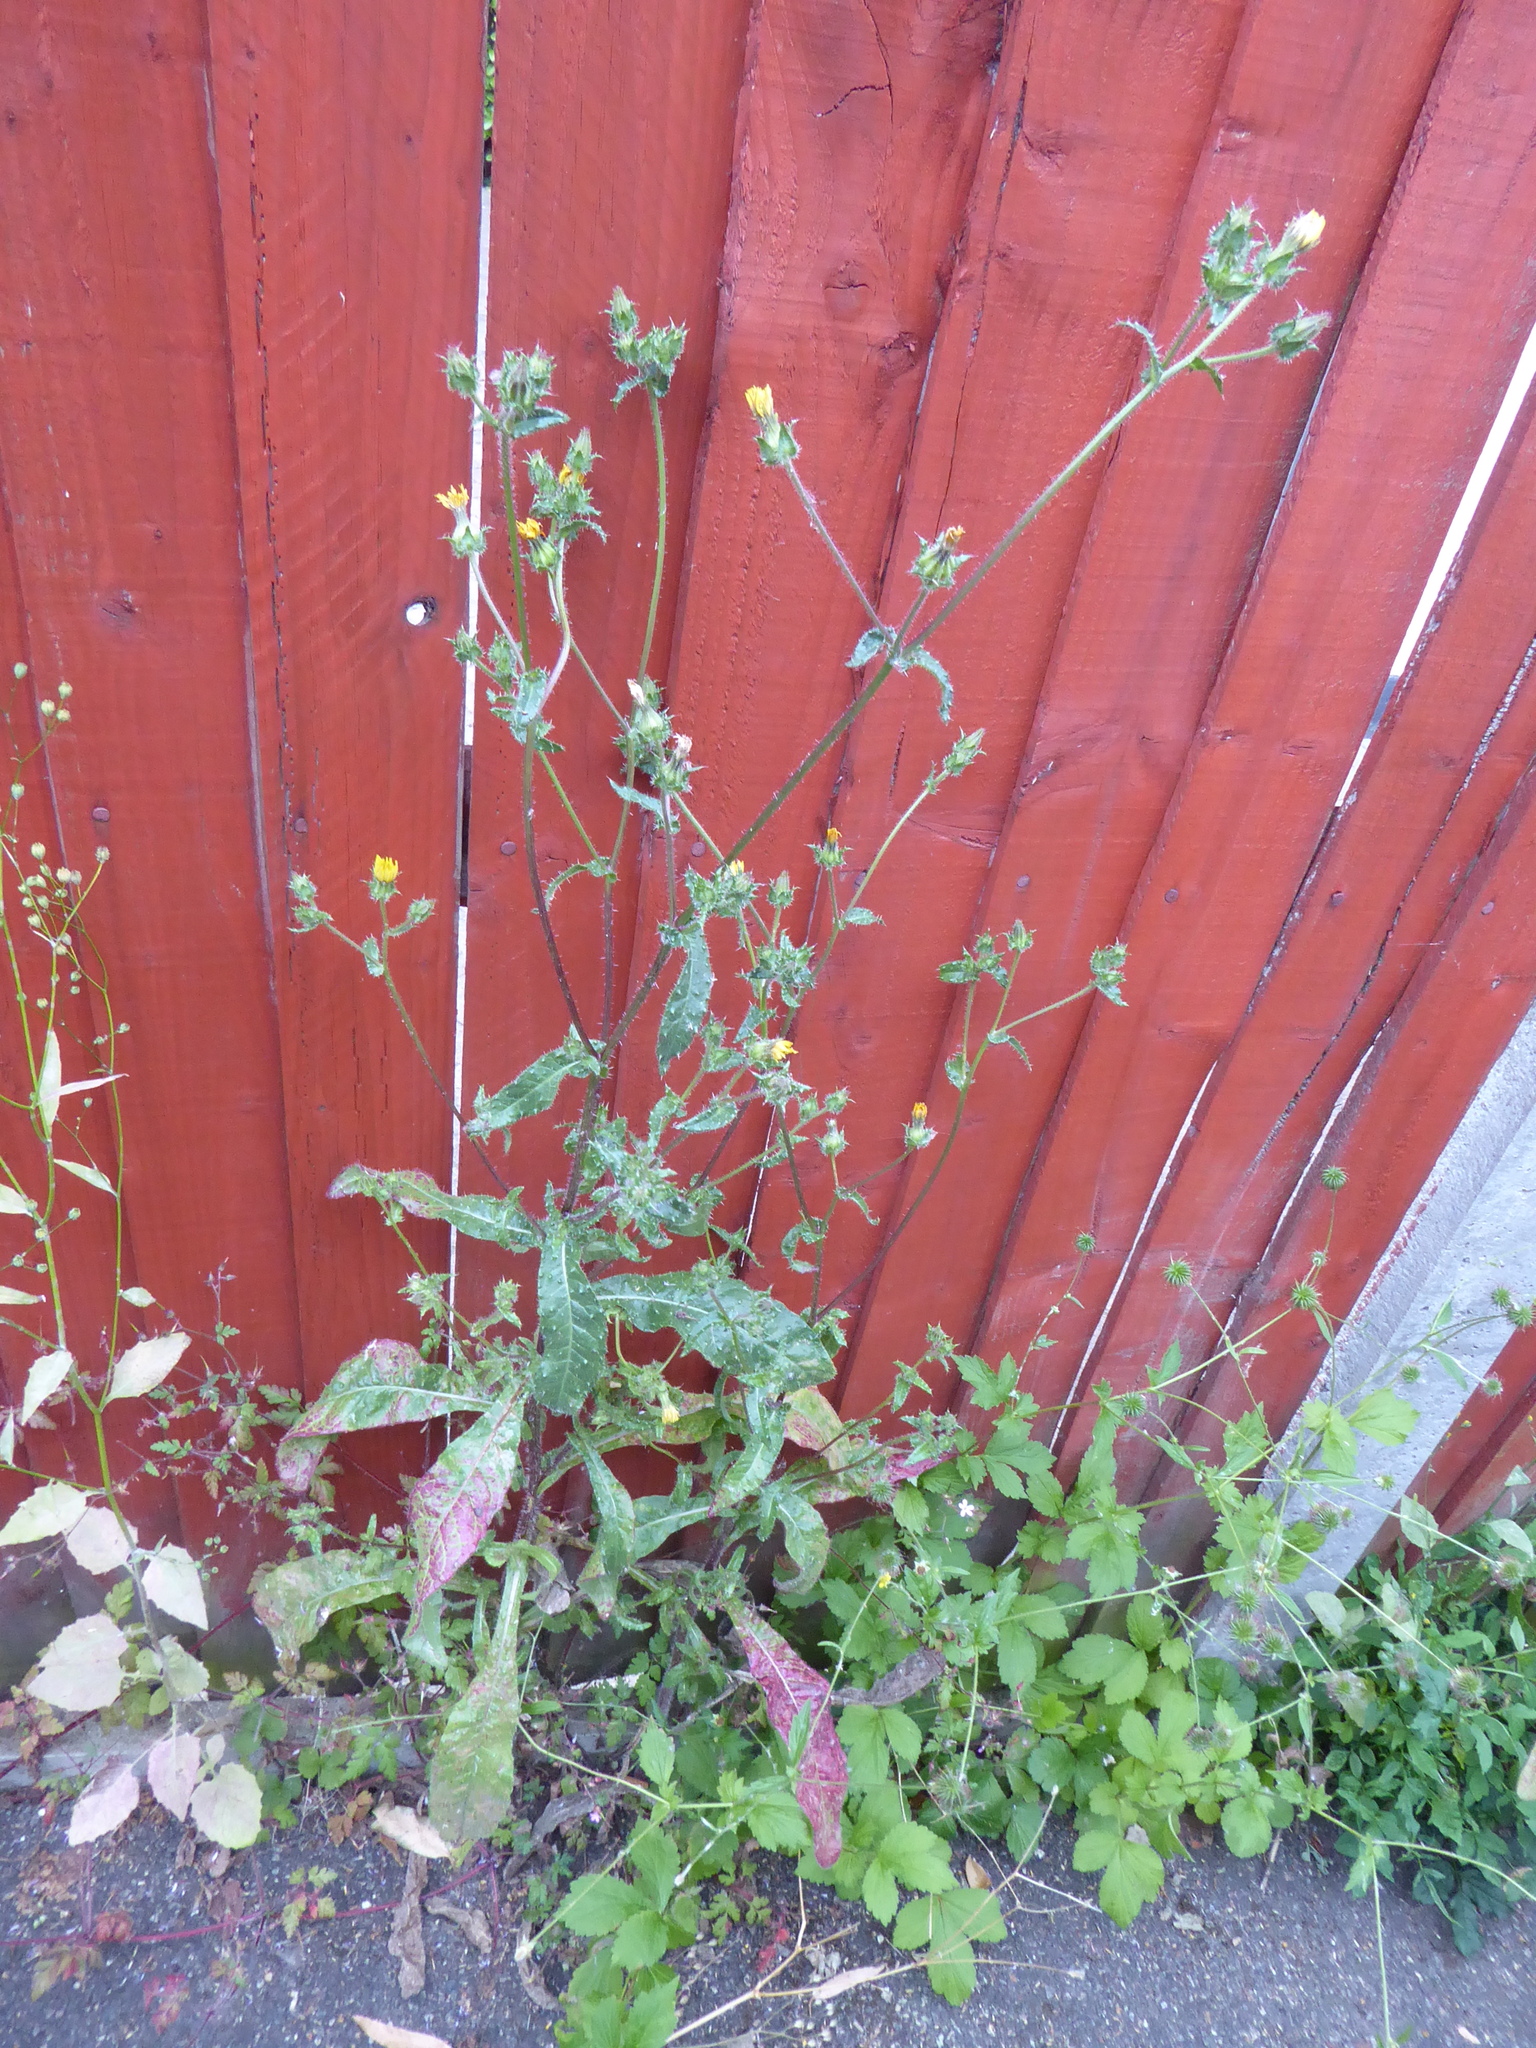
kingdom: Plantae
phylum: Tracheophyta
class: Magnoliopsida
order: Asterales
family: Asteraceae
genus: Helminthotheca
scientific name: Helminthotheca echioides
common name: Ox-tongue
